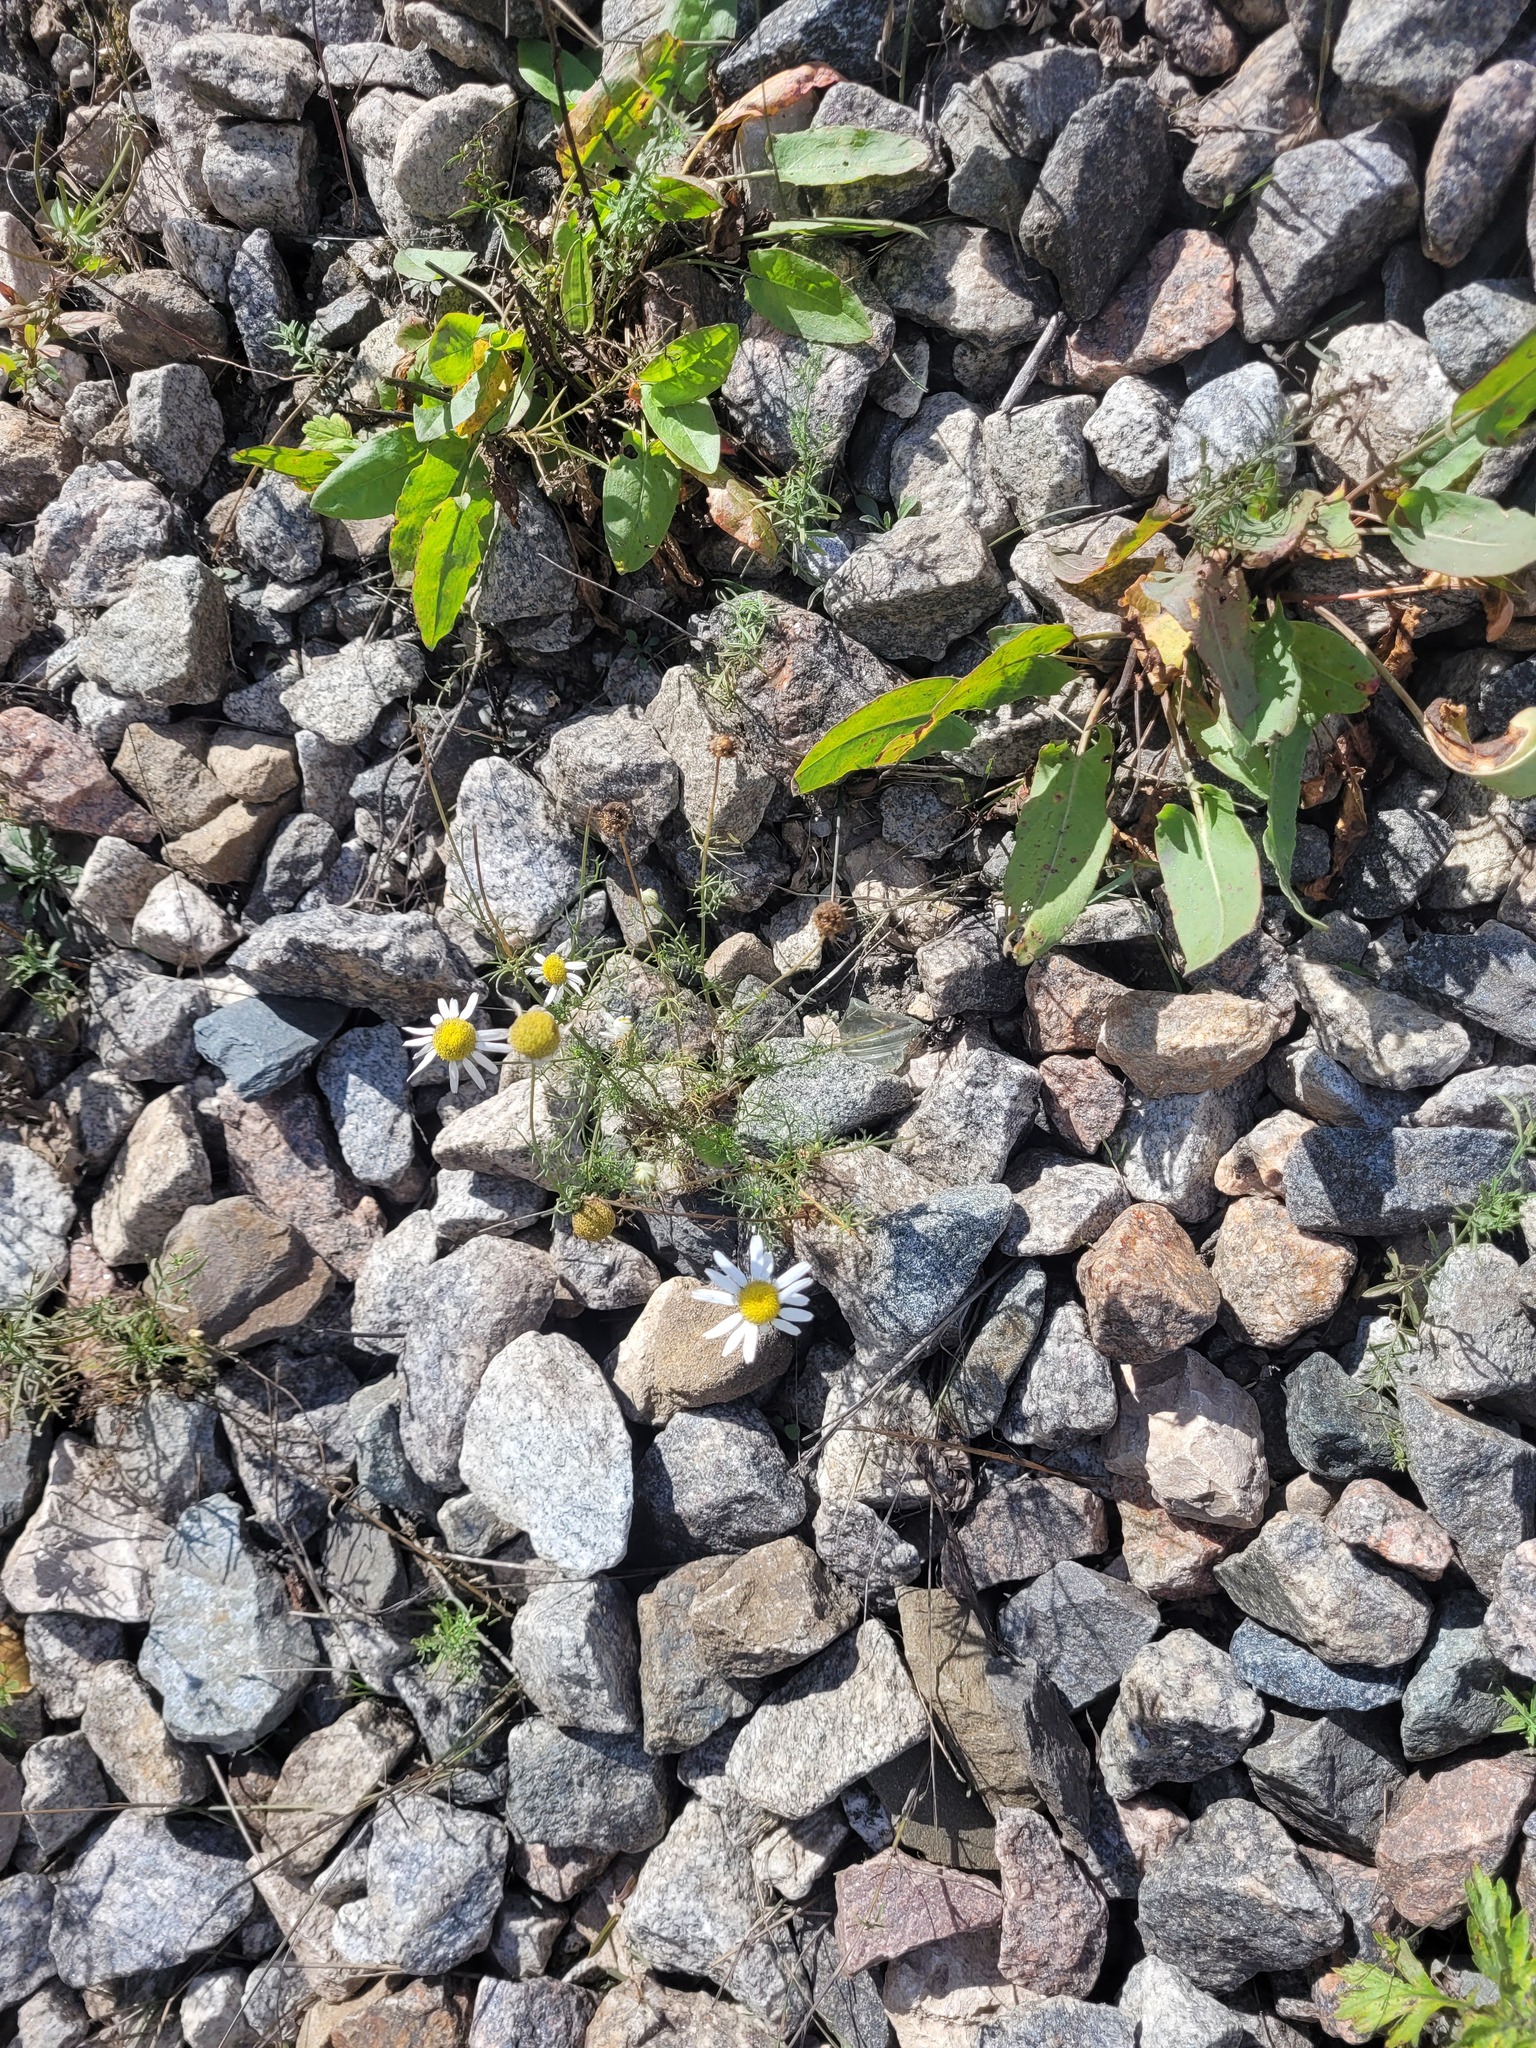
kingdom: Plantae
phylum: Tracheophyta
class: Magnoliopsida
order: Asterales
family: Asteraceae
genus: Tripleurospermum
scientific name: Tripleurospermum inodorum
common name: Scentless mayweed
